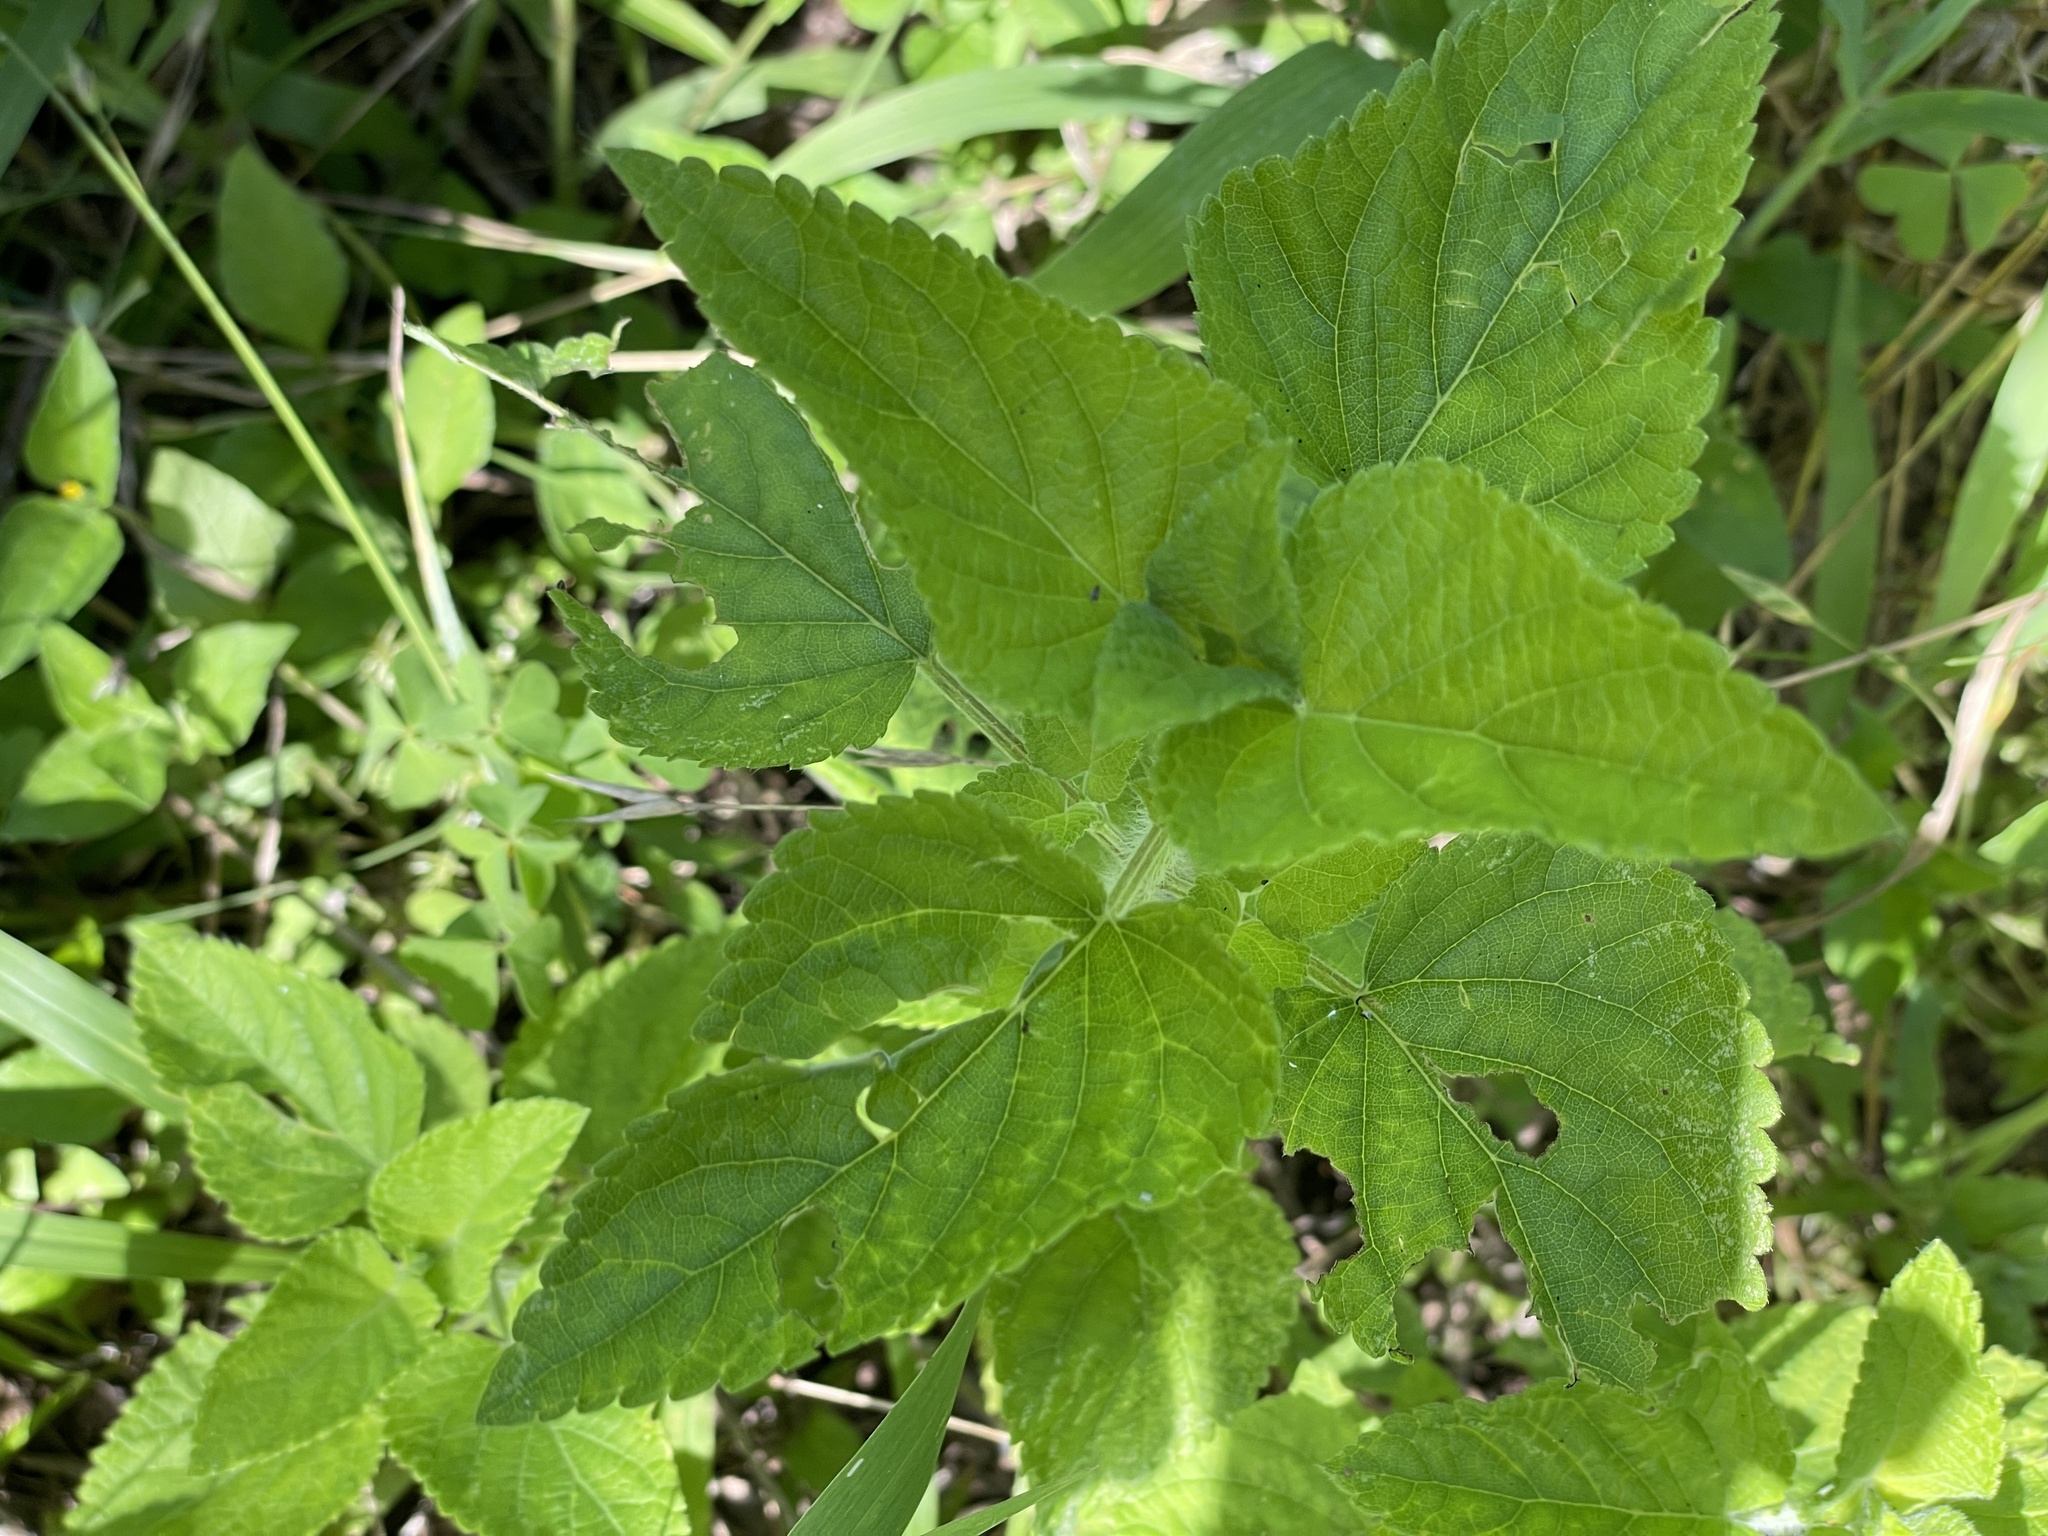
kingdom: Plantae
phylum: Tracheophyta
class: Magnoliopsida
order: Lamiales
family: Lamiaceae
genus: Salvia
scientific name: Salvia coccinea
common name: Blood sage
